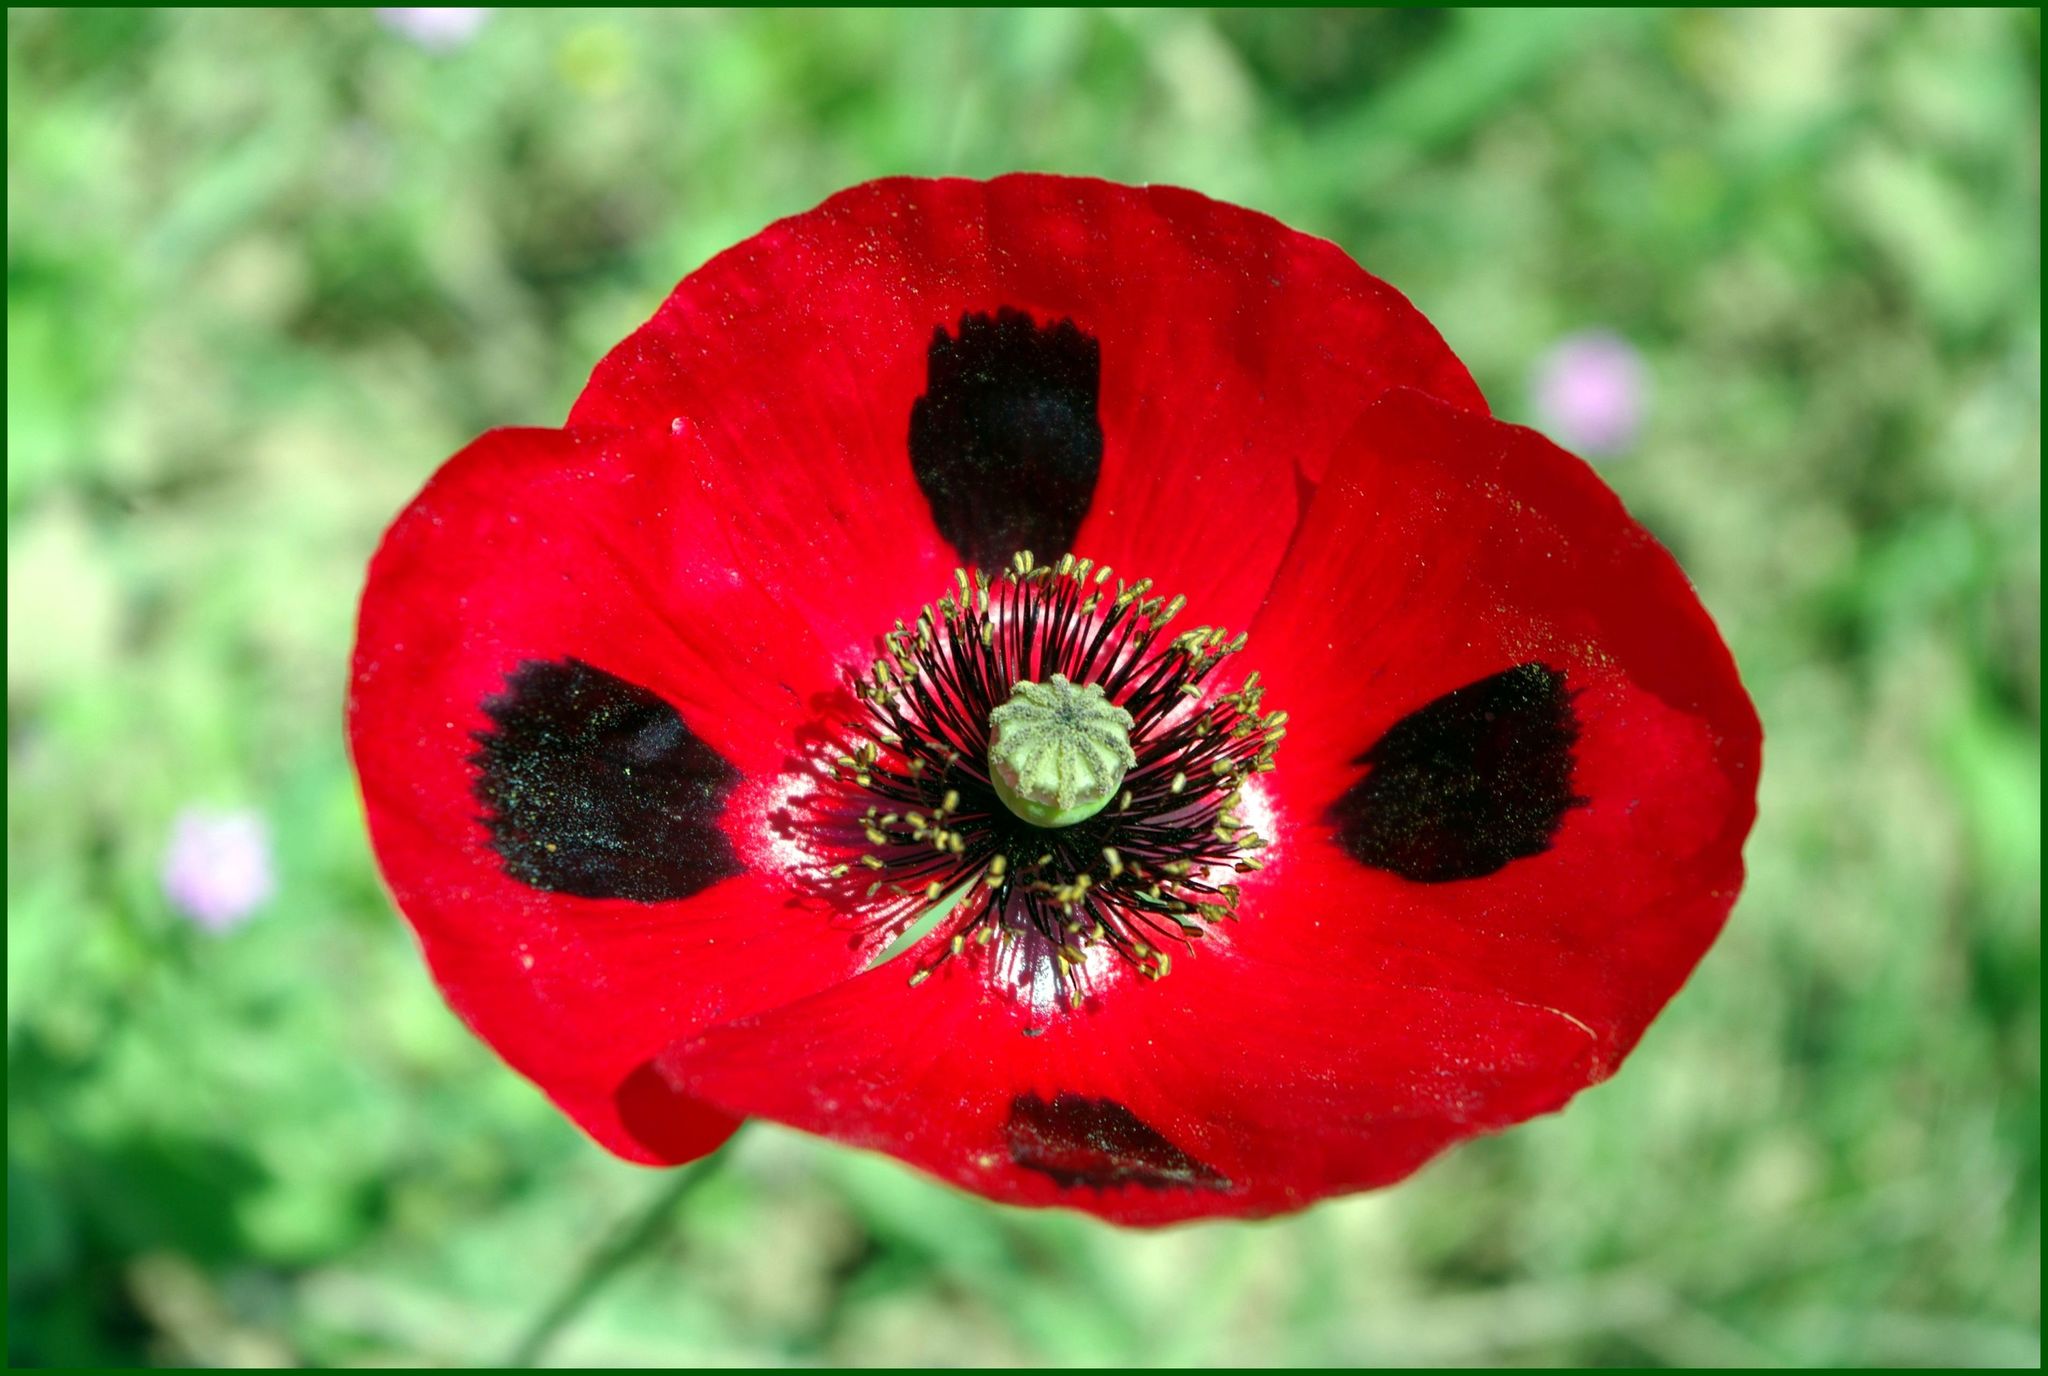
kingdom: Plantae
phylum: Tracheophyta
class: Magnoliopsida
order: Ranunculales
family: Papaveraceae
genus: Papaver
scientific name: Papaver commutatum
